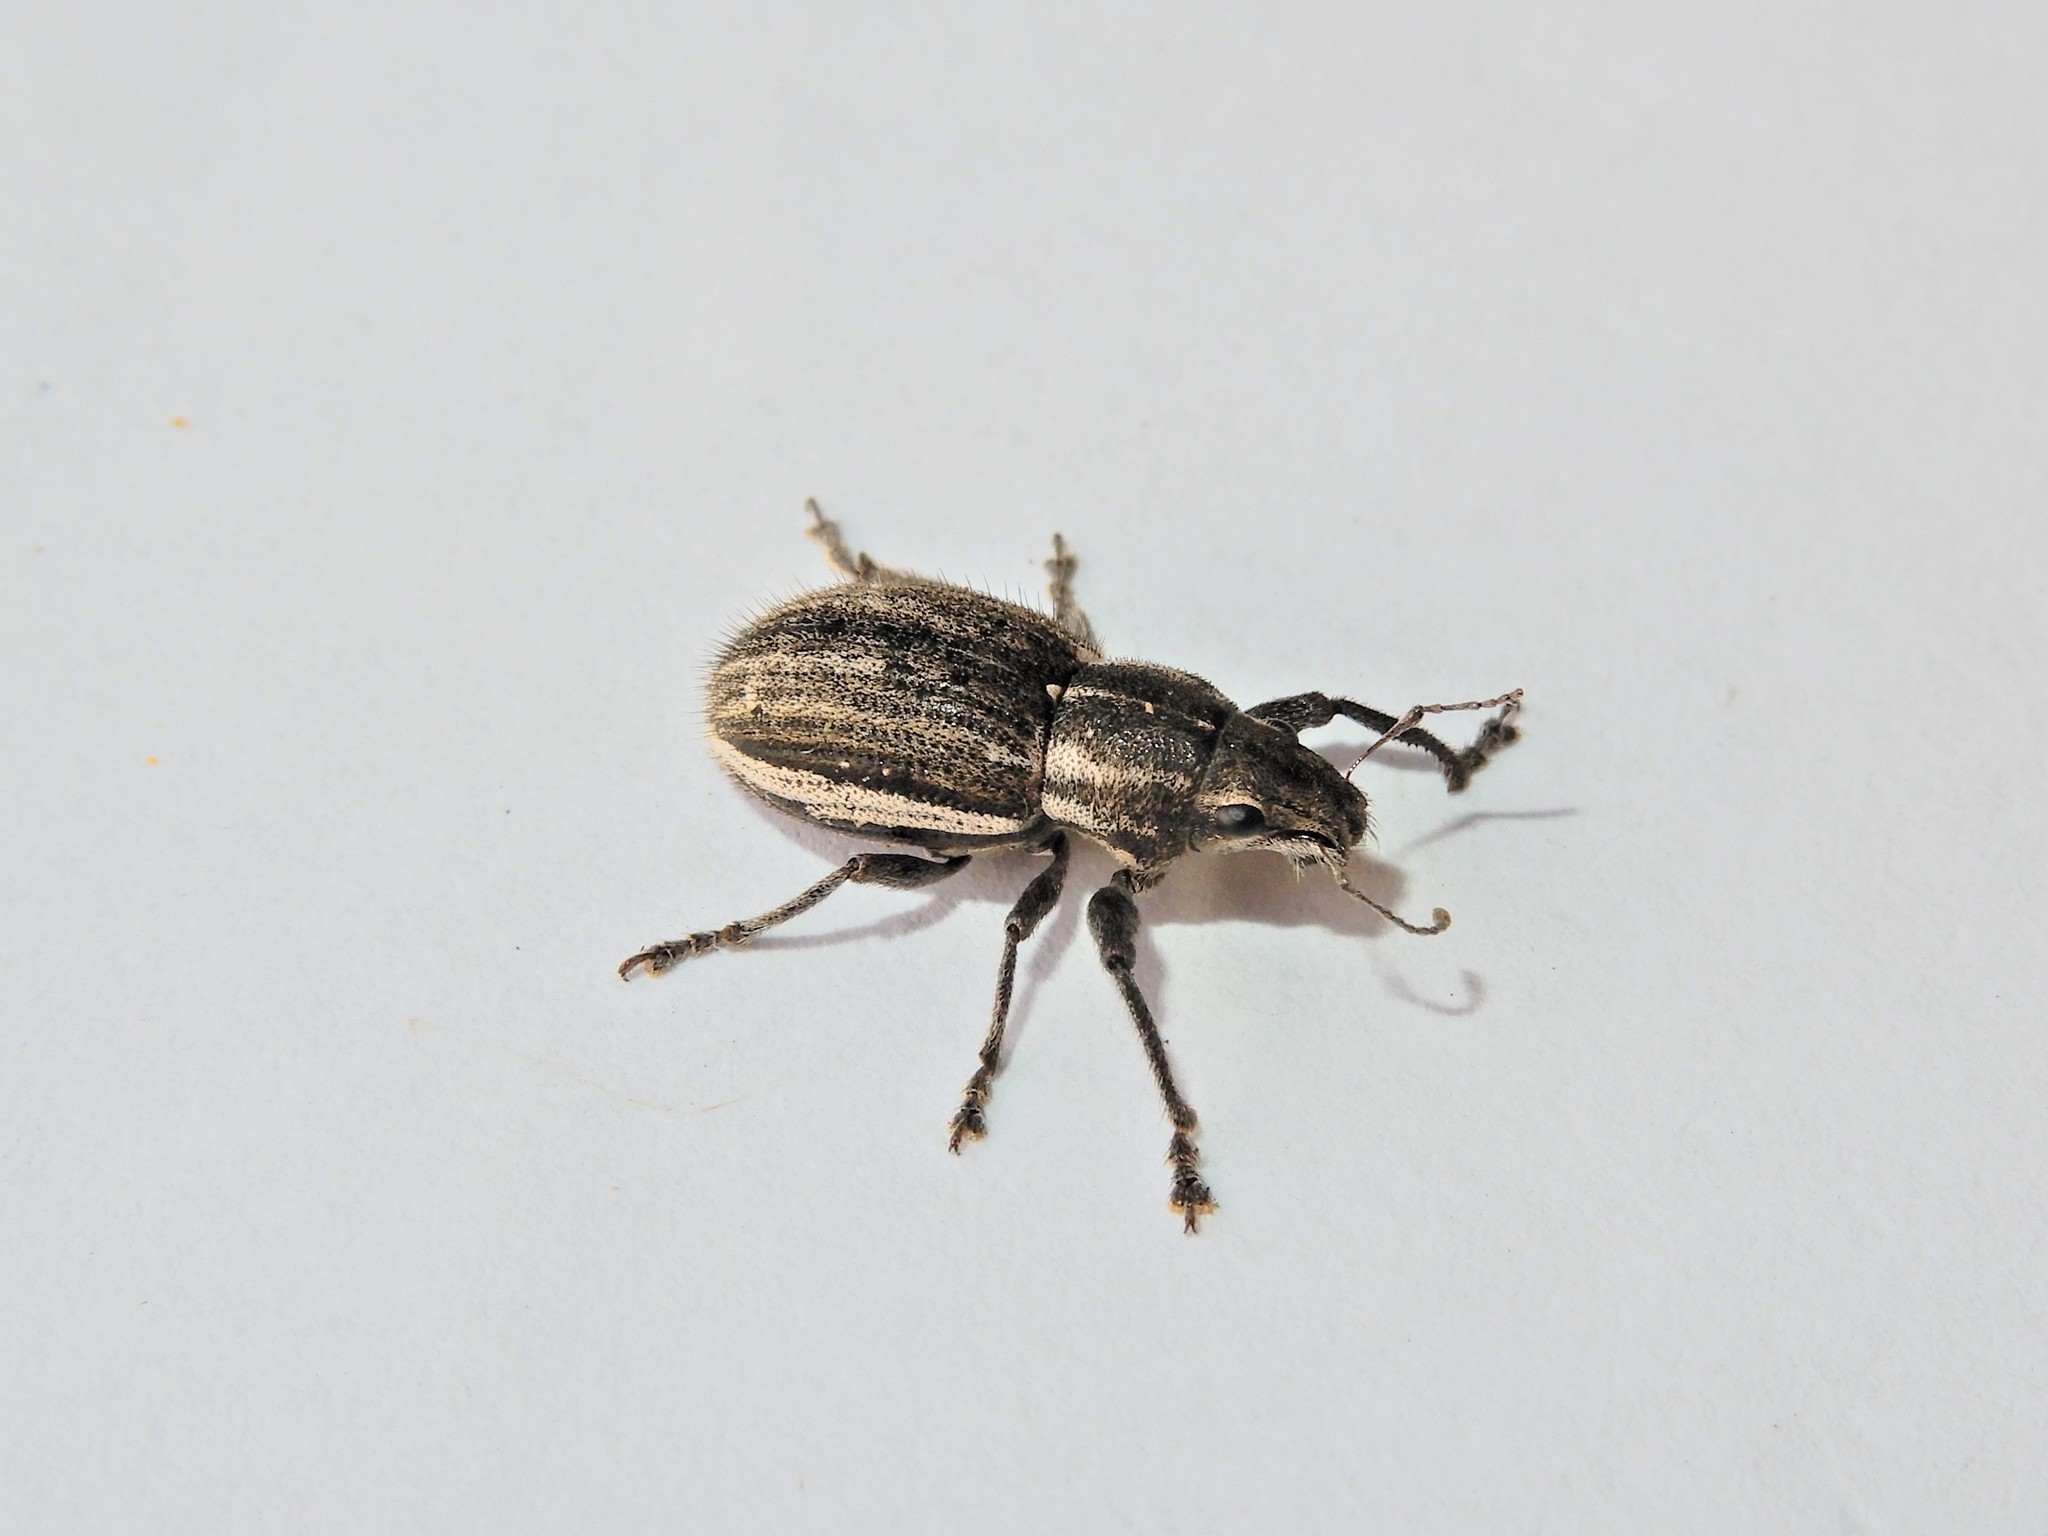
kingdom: Animalia
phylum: Arthropoda
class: Insecta
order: Coleoptera
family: Curculionidae
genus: Naupactus
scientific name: Naupactus leucoloma
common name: Whitefringed beetle
